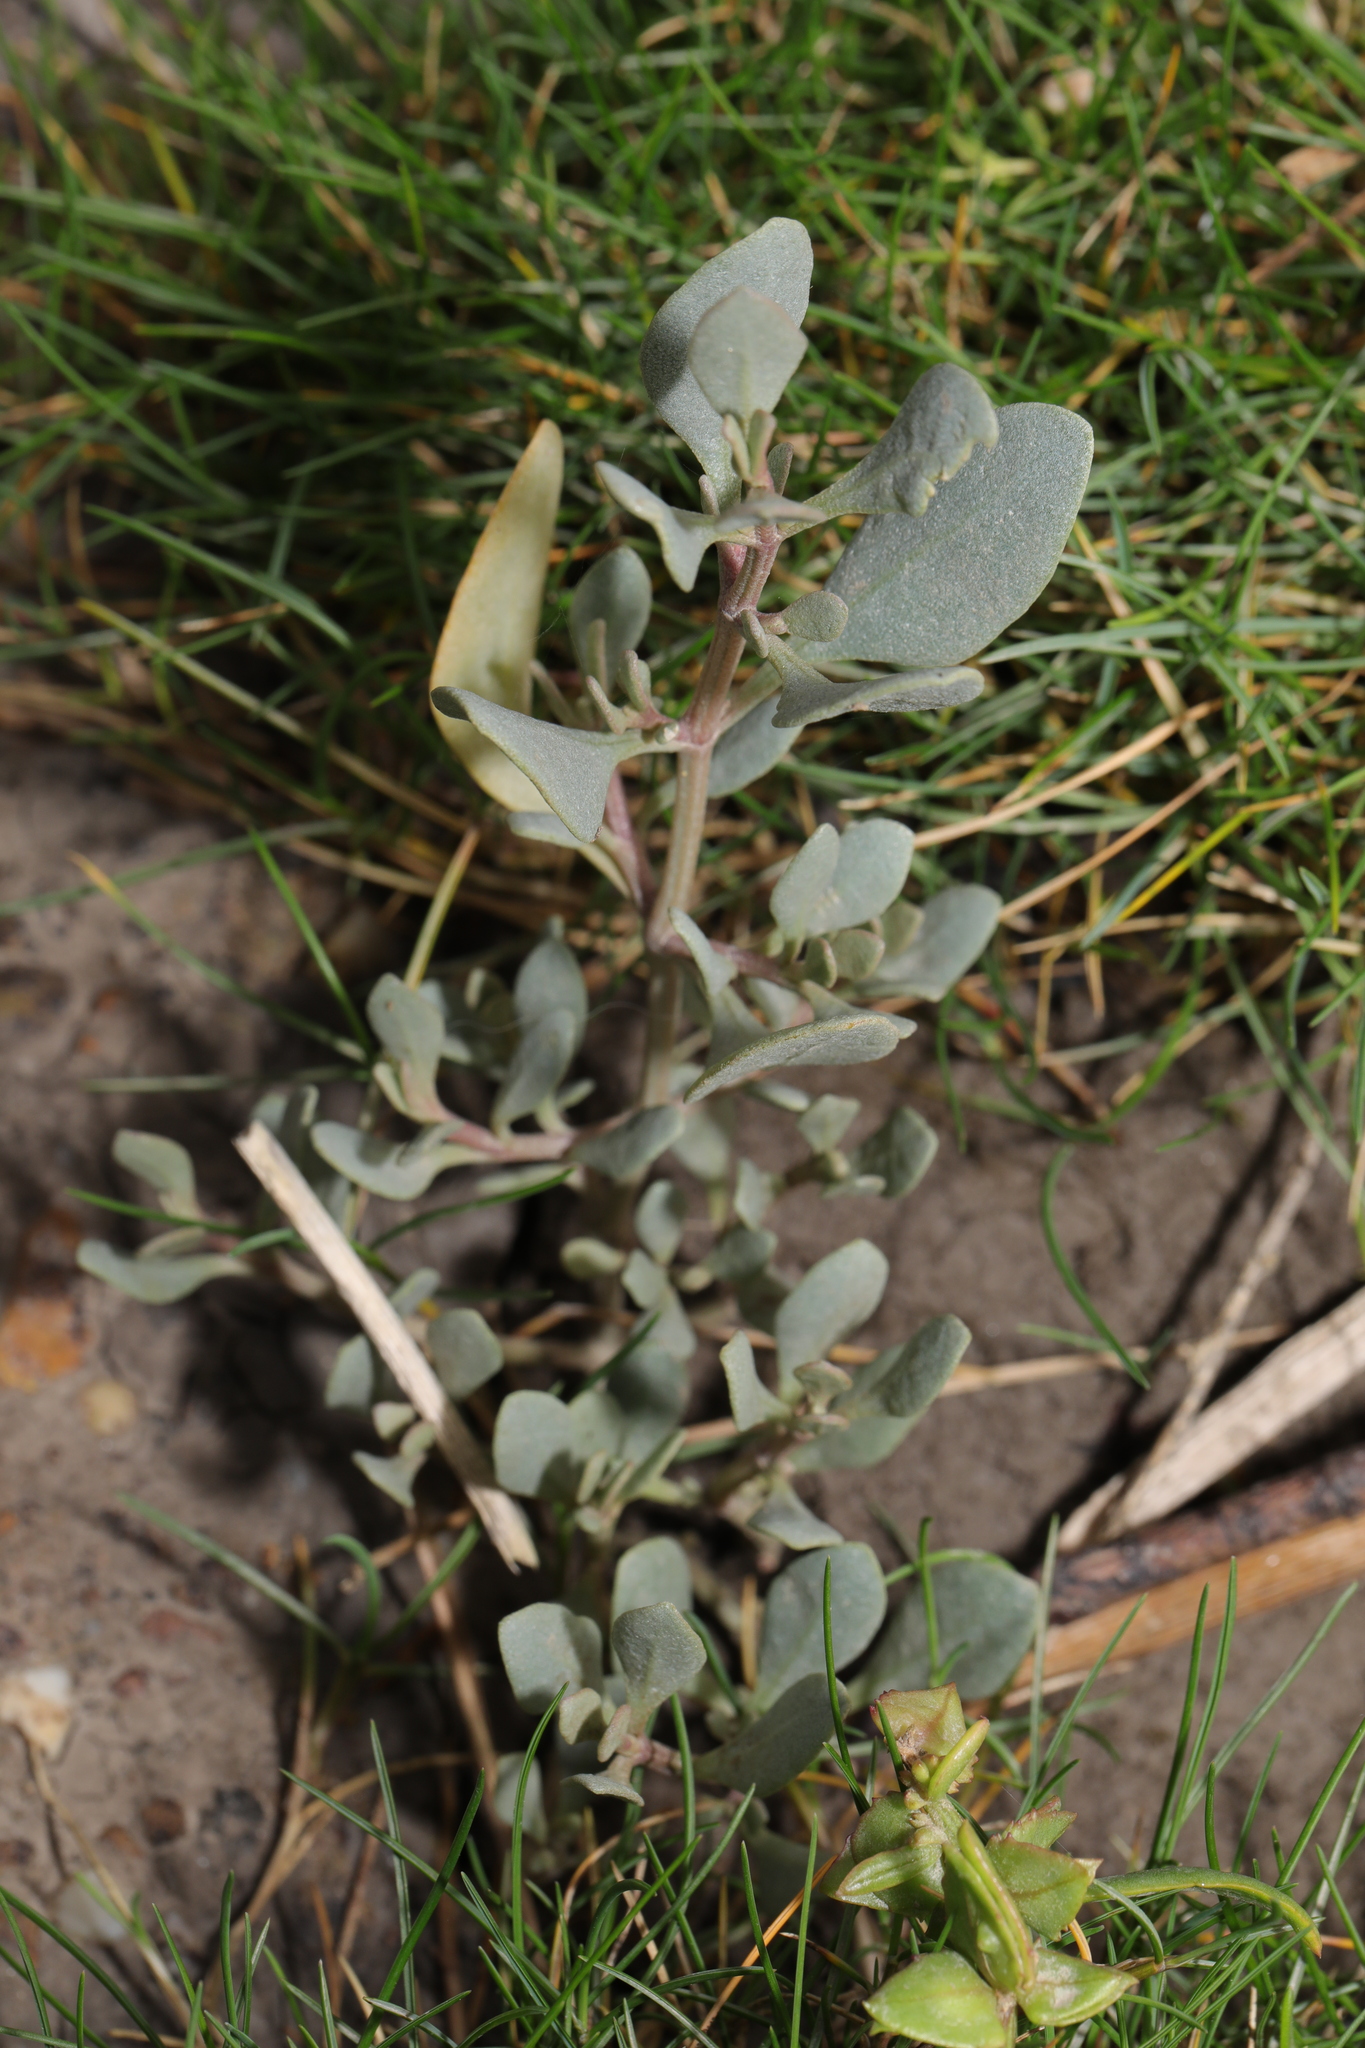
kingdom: Plantae
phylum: Tracheophyta
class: Magnoliopsida
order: Caryophyllales
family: Amaranthaceae
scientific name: Amaranthaceae
